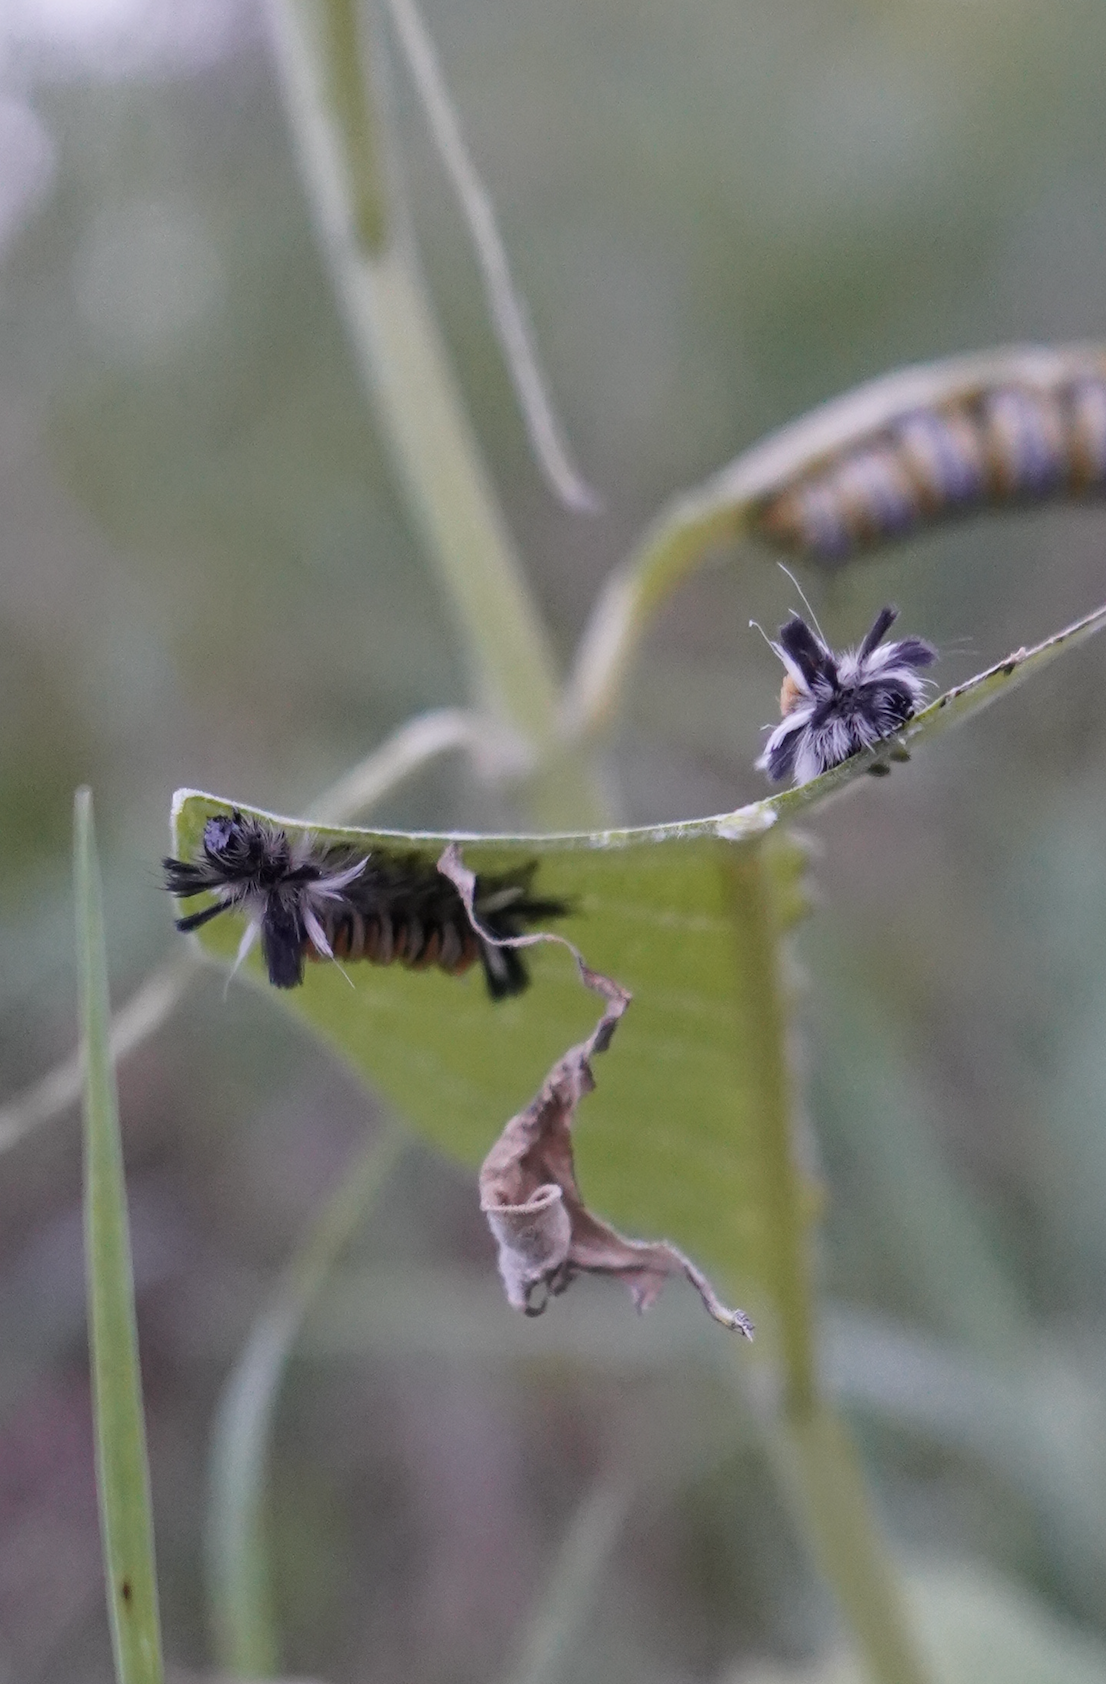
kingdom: Animalia
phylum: Arthropoda
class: Insecta
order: Lepidoptera
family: Erebidae
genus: Euchaetes
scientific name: Euchaetes egle
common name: Milkweed tussock moth
